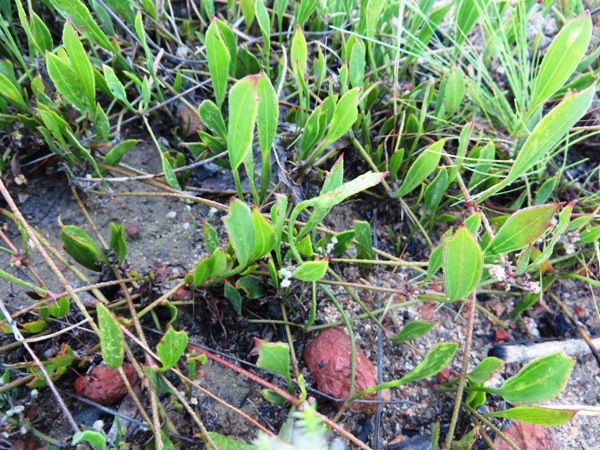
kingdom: Plantae
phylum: Tracheophyta
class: Magnoliopsida
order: Apiales
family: Apiaceae
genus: Centella
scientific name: Centella glabrata
